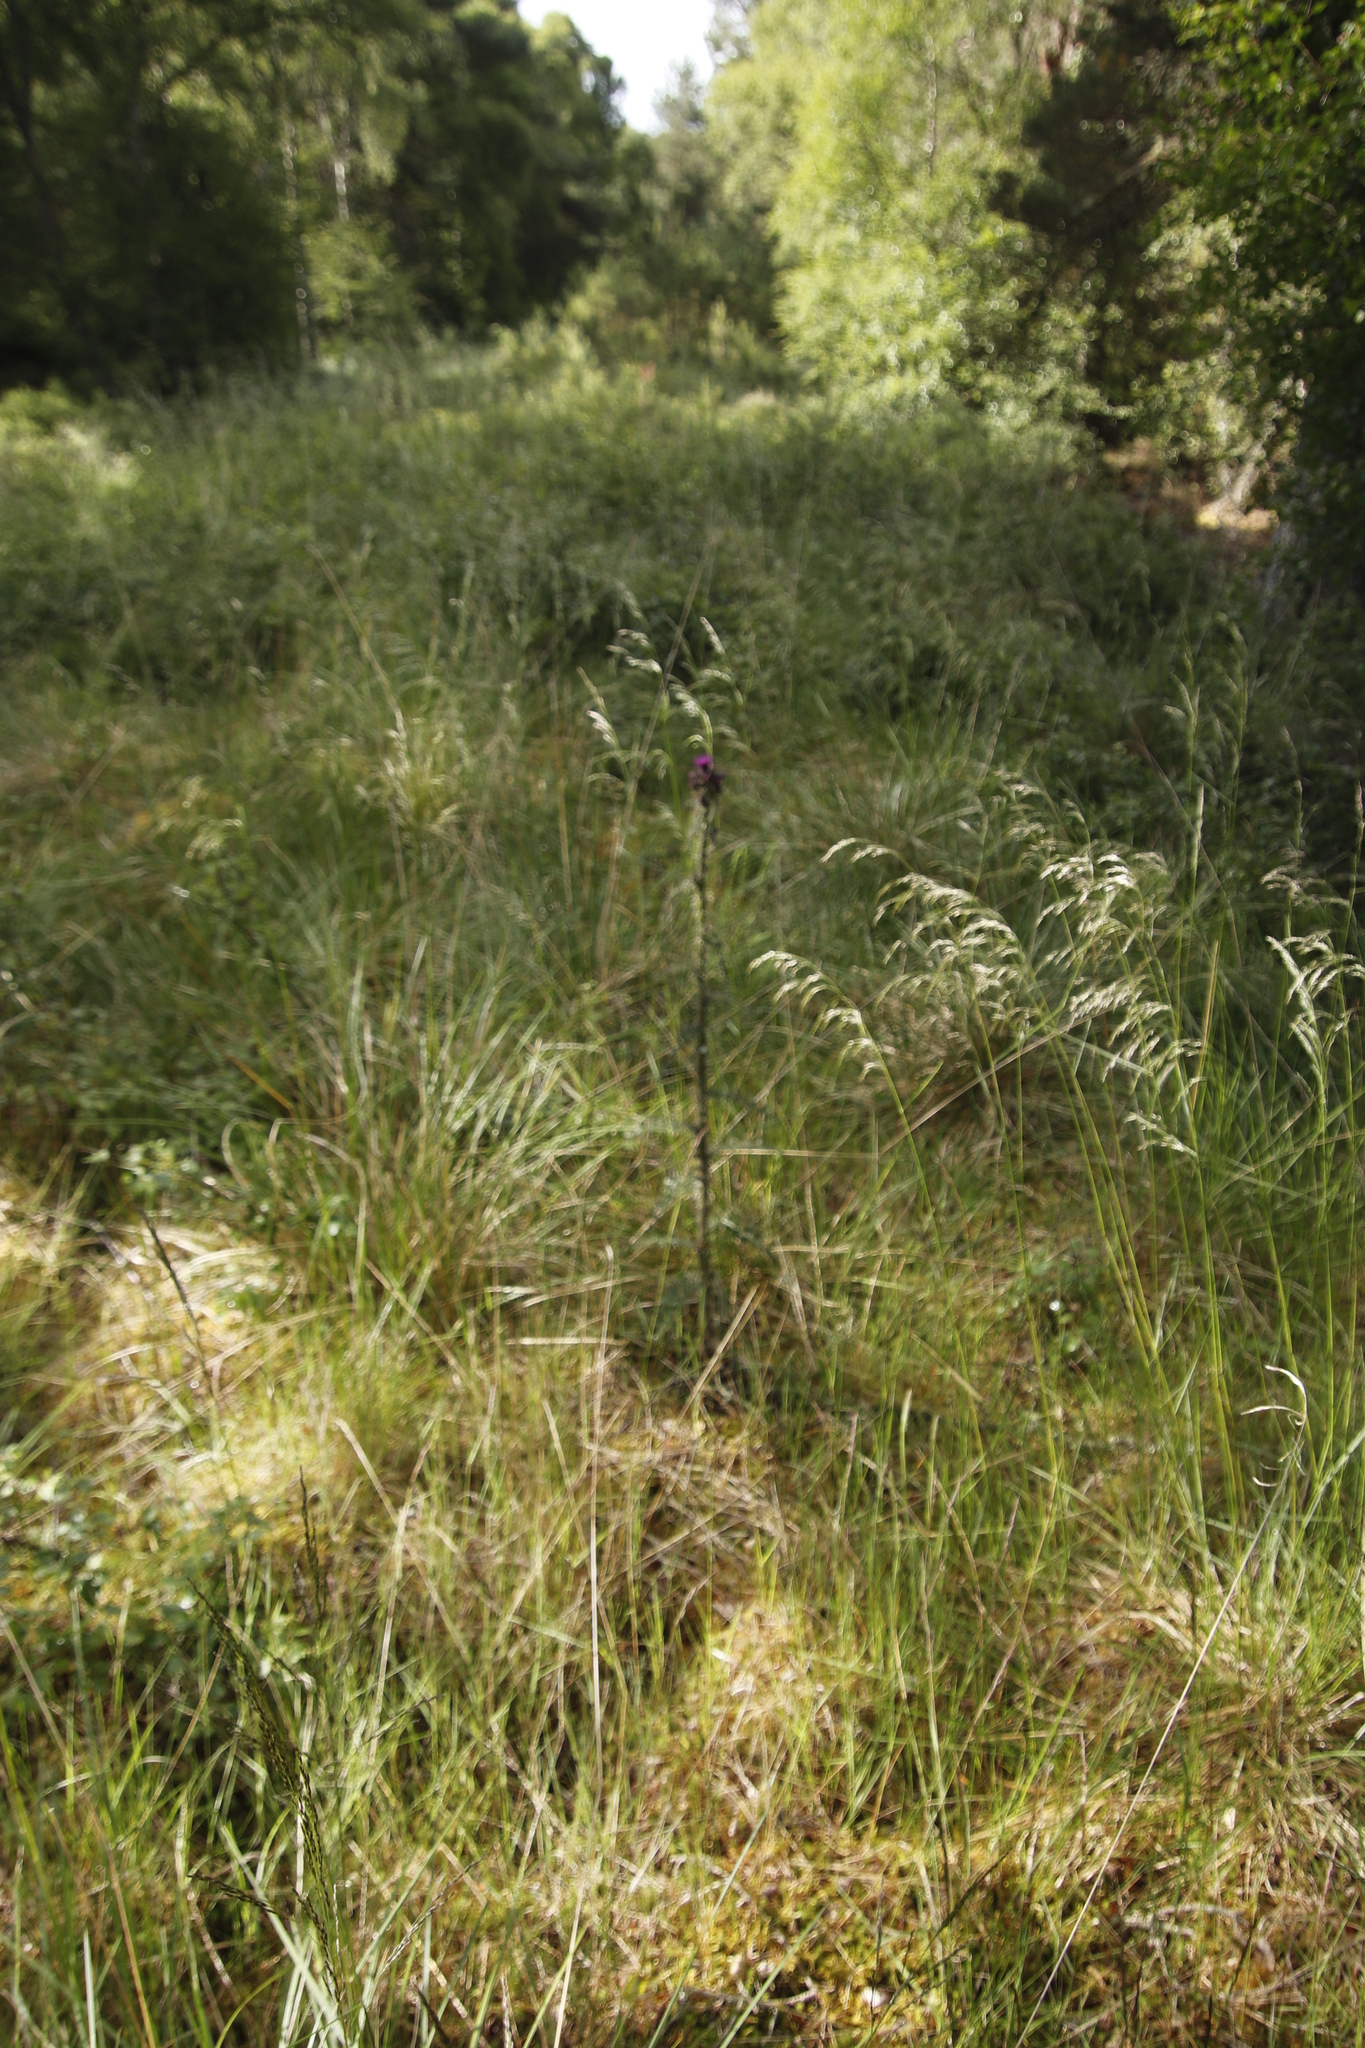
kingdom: Plantae
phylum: Tracheophyta
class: Magnoliopsida
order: Asterales
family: Asteraceae
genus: Cirsium
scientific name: Cirsium palustre
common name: Marsh thistle
